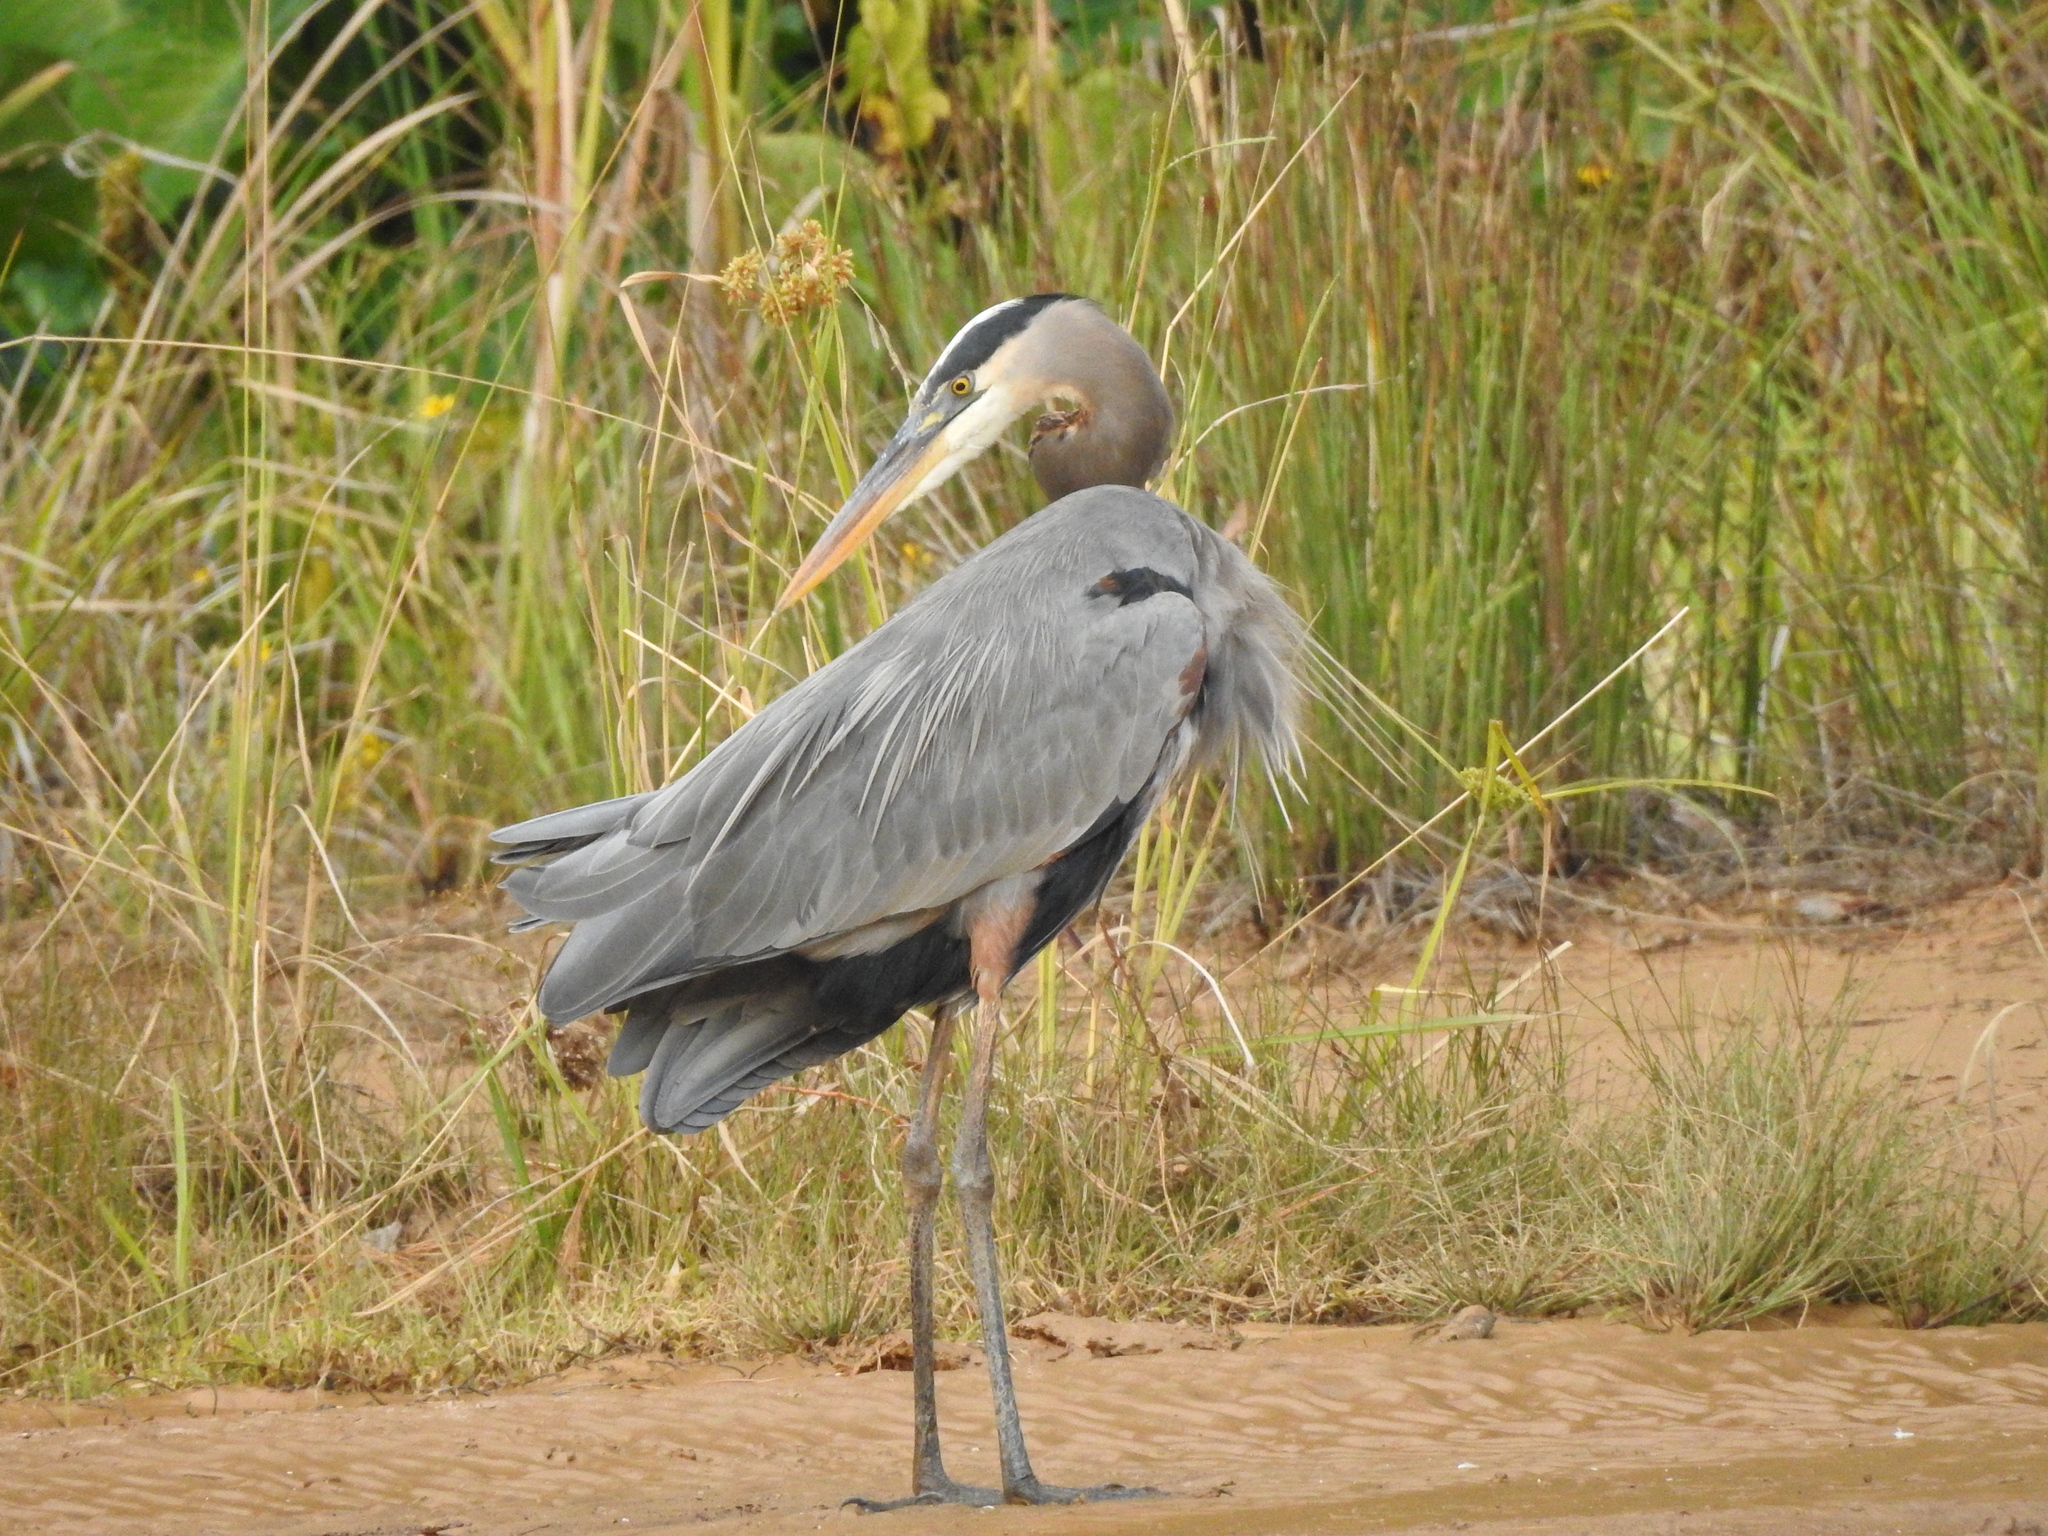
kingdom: Animalia
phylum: Chordata
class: Aves
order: Pelecaniformes
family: Ardeidae
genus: Ardea
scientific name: Ardea herodias
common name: Great blue heron
